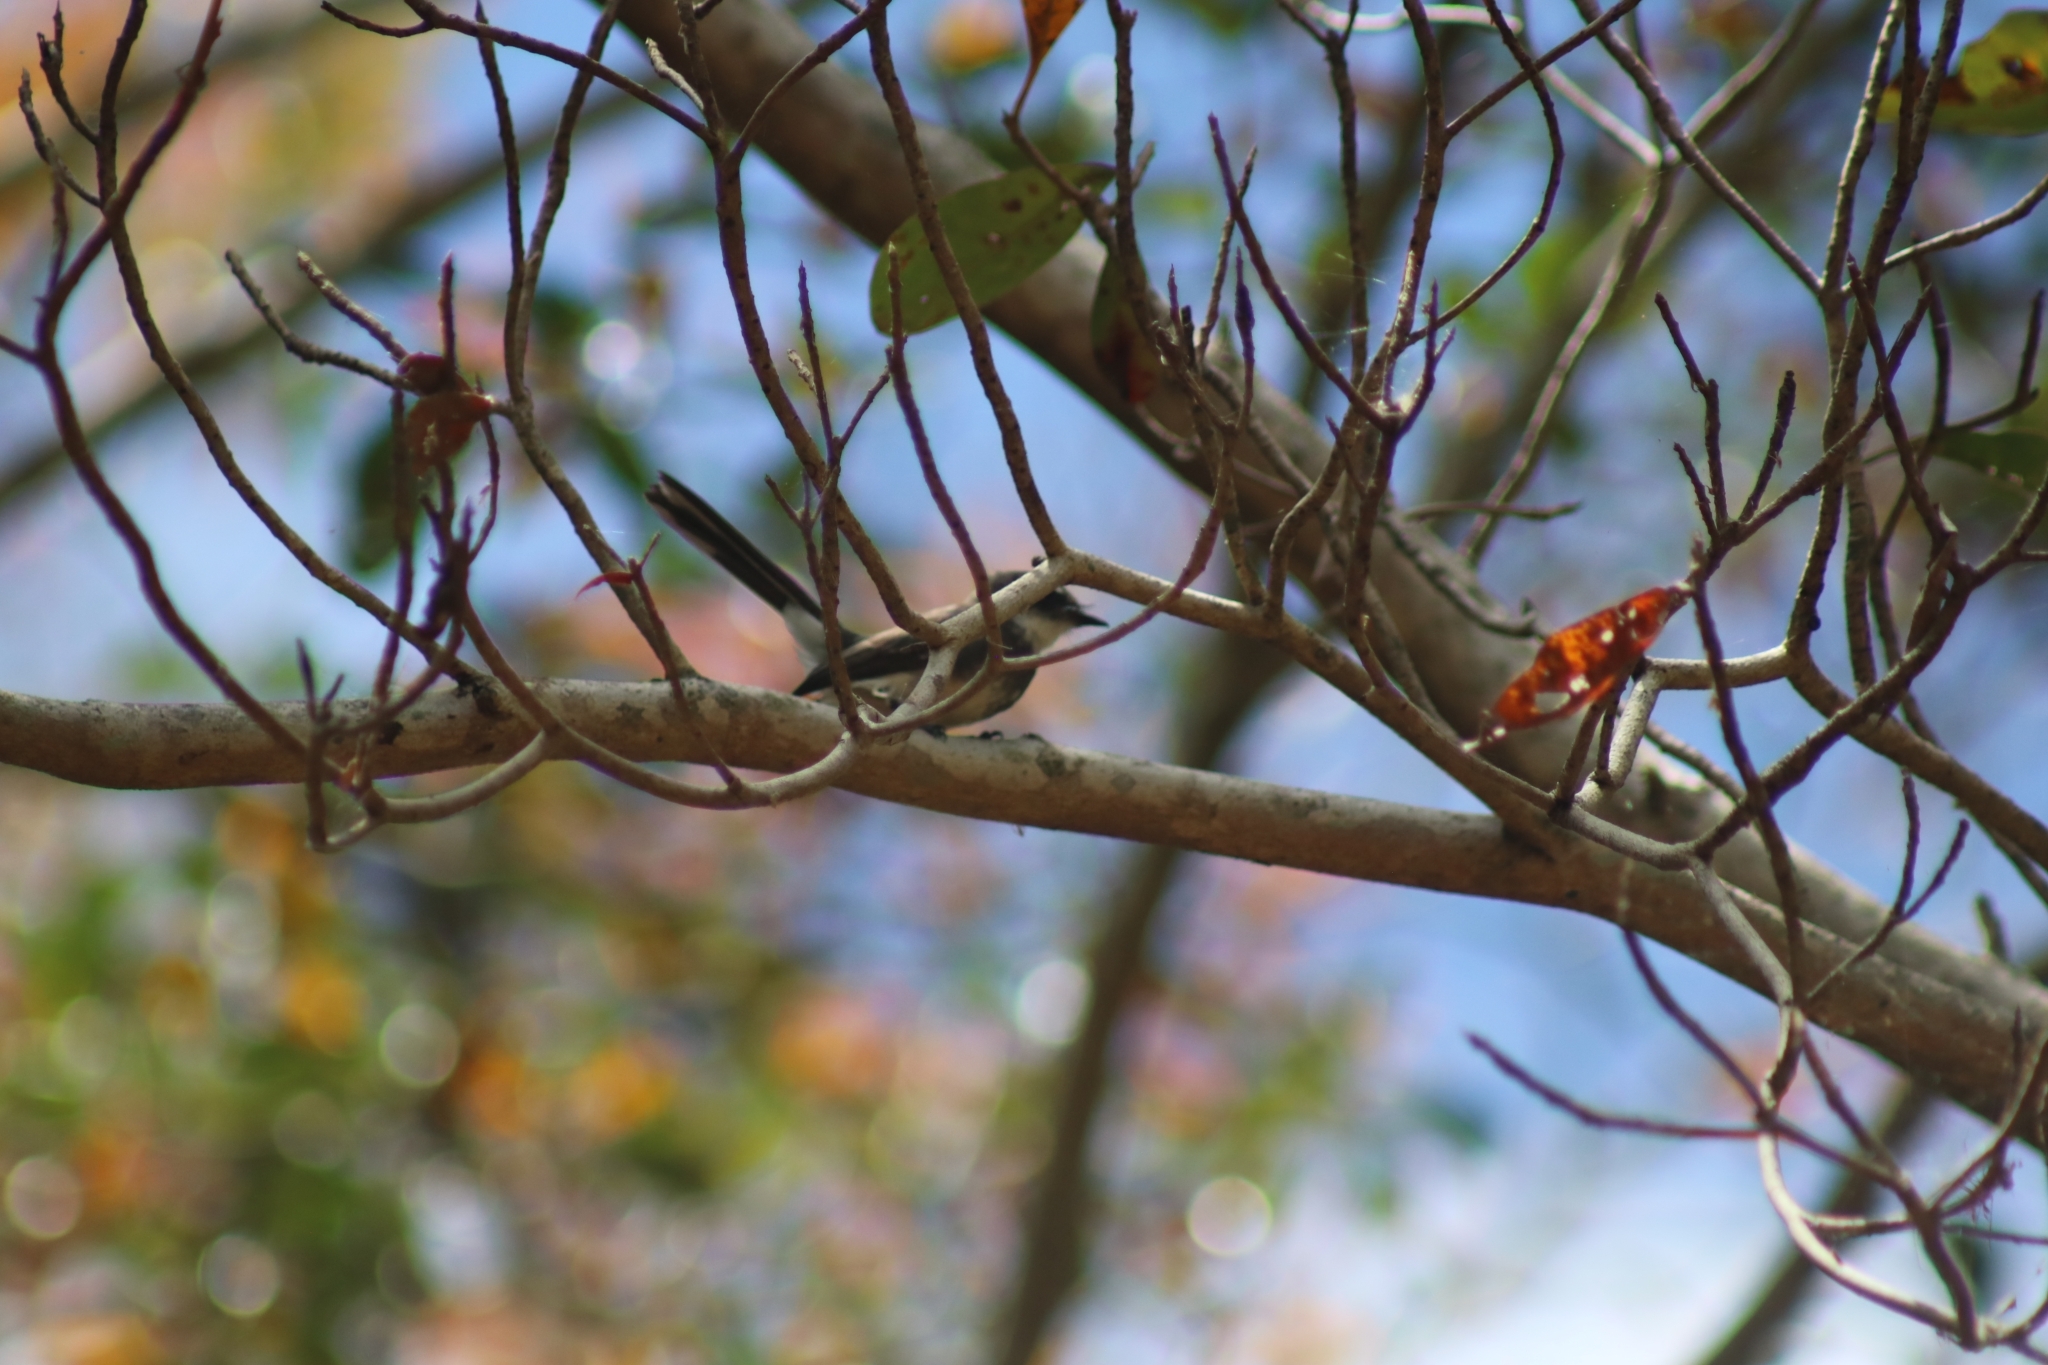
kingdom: Animalia
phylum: Chordata
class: Aves
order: Passeriformes
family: Rhipiduridae
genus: Rhipidura
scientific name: Rhipidura rufiventris
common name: Northern fantail
